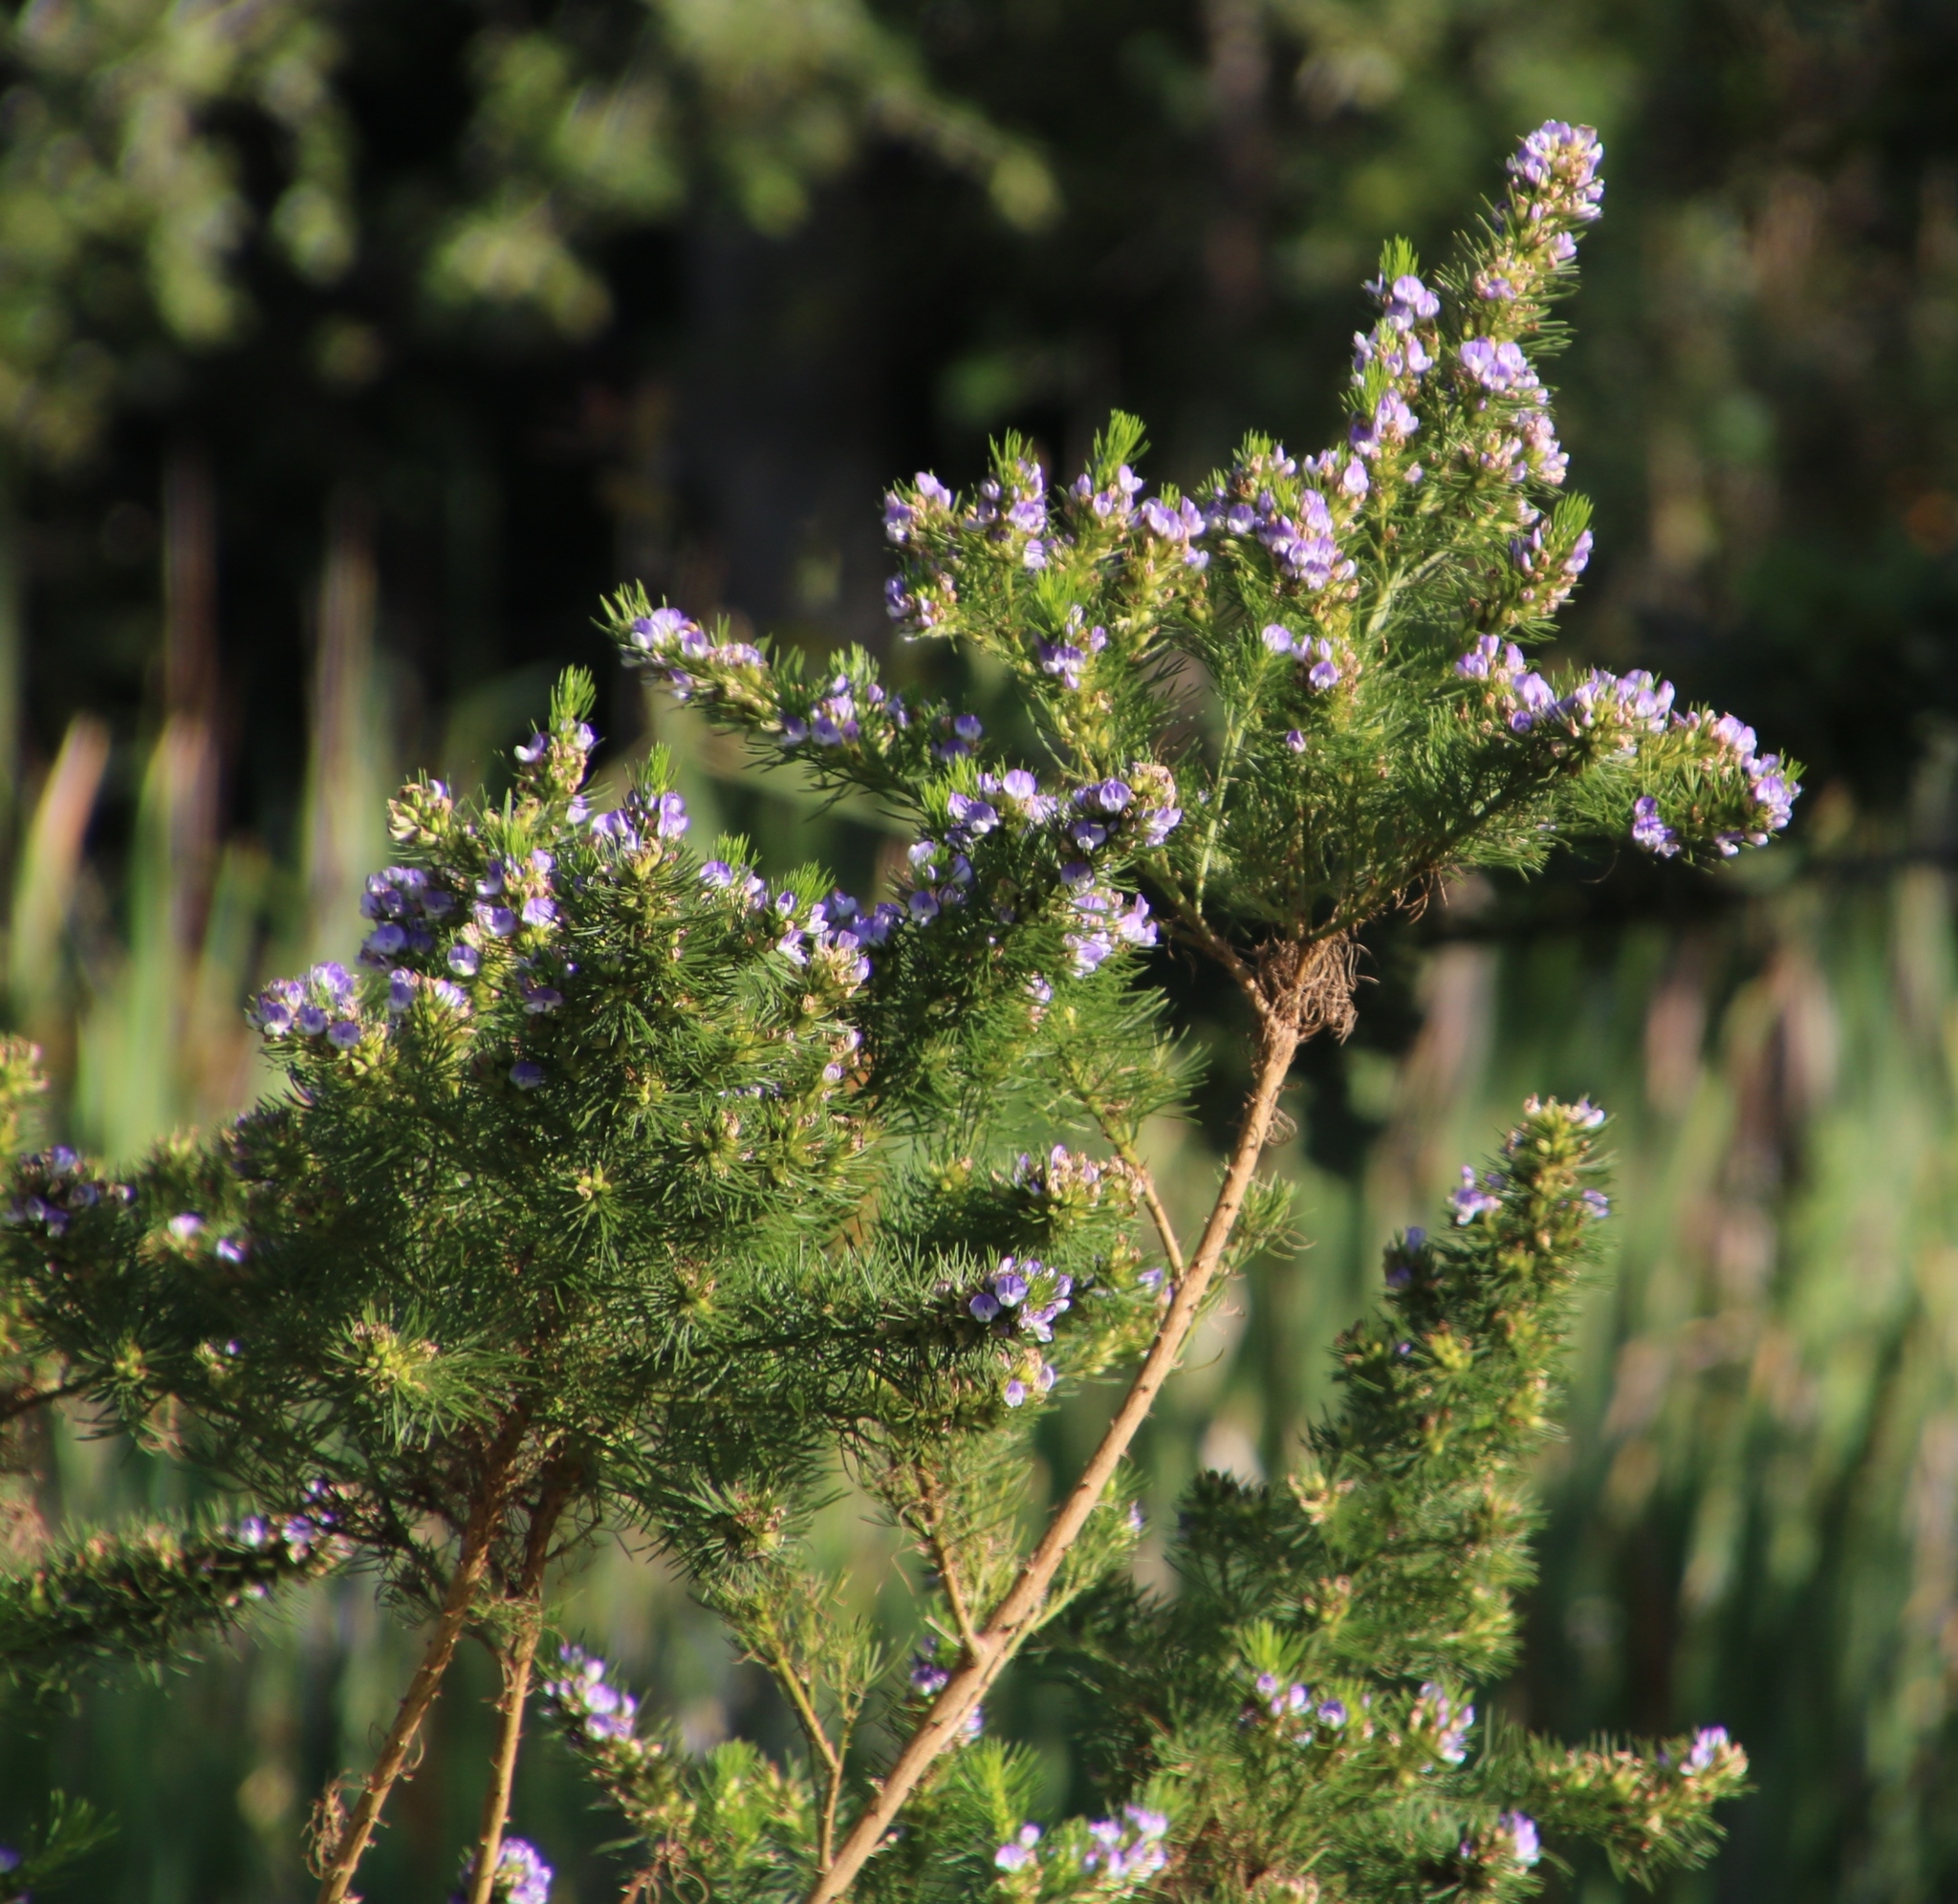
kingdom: Plantae
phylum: Tracheophyta
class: Magnoliopsida
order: Fabales
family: Fabaceae
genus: Psoralea
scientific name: Psoralea pinnata
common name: African scurfpea
